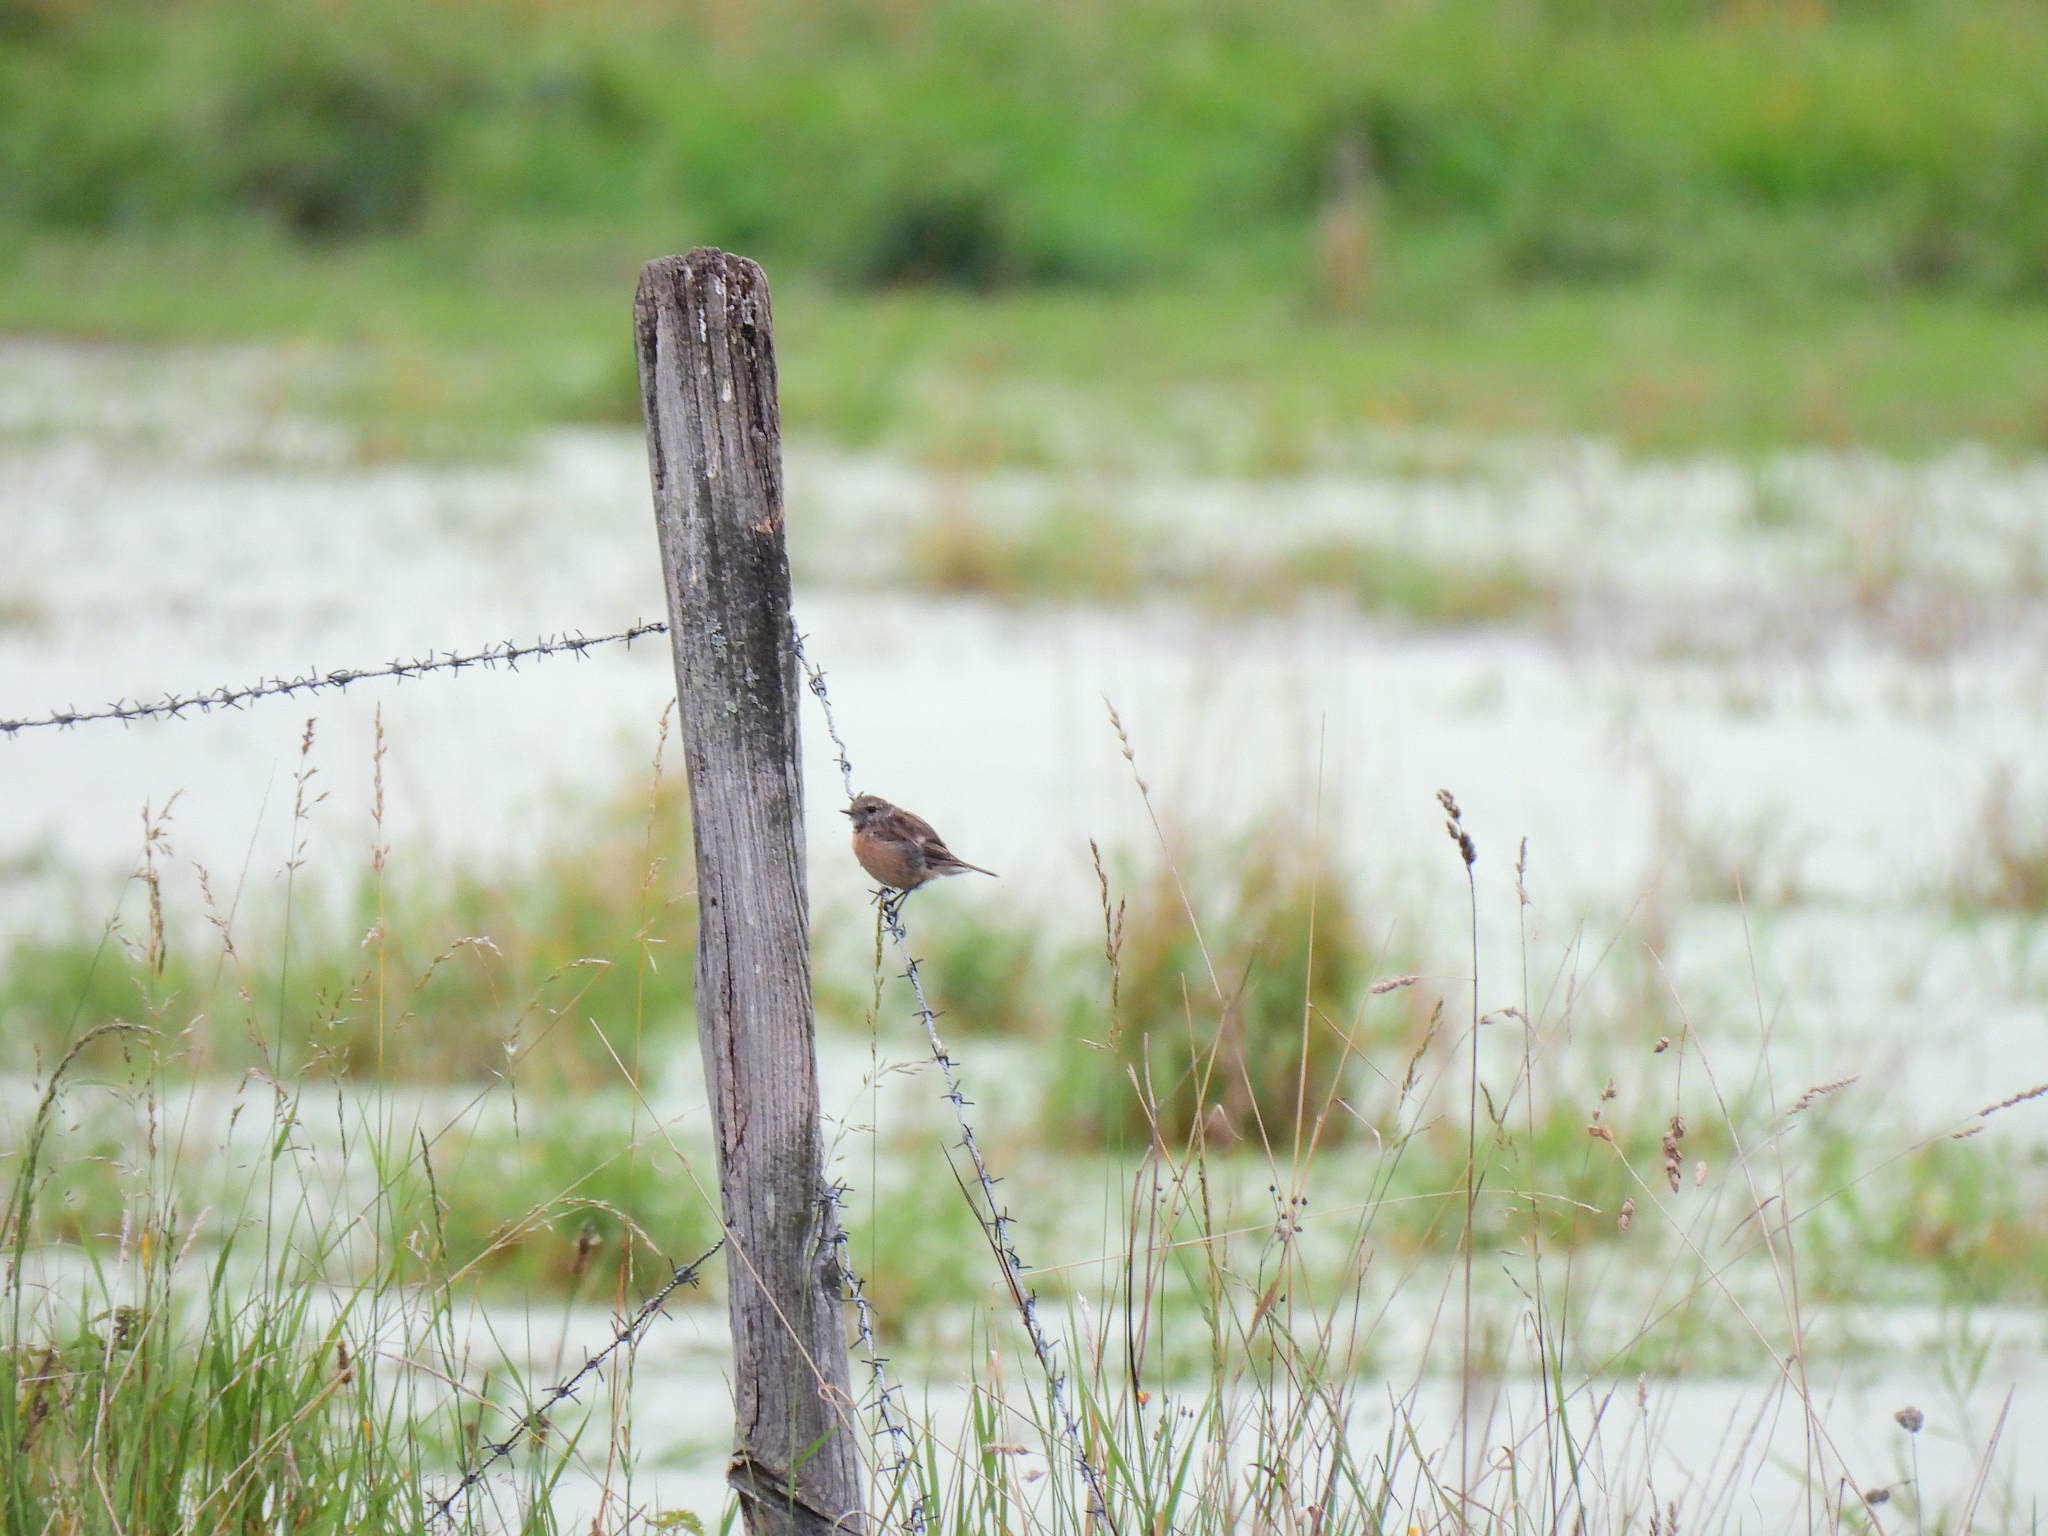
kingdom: Animalia
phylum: Chordata
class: Aves
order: Passeriformes
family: Muscicapidae
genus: Saxicola
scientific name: Saxicola rubicola
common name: European stonechat
